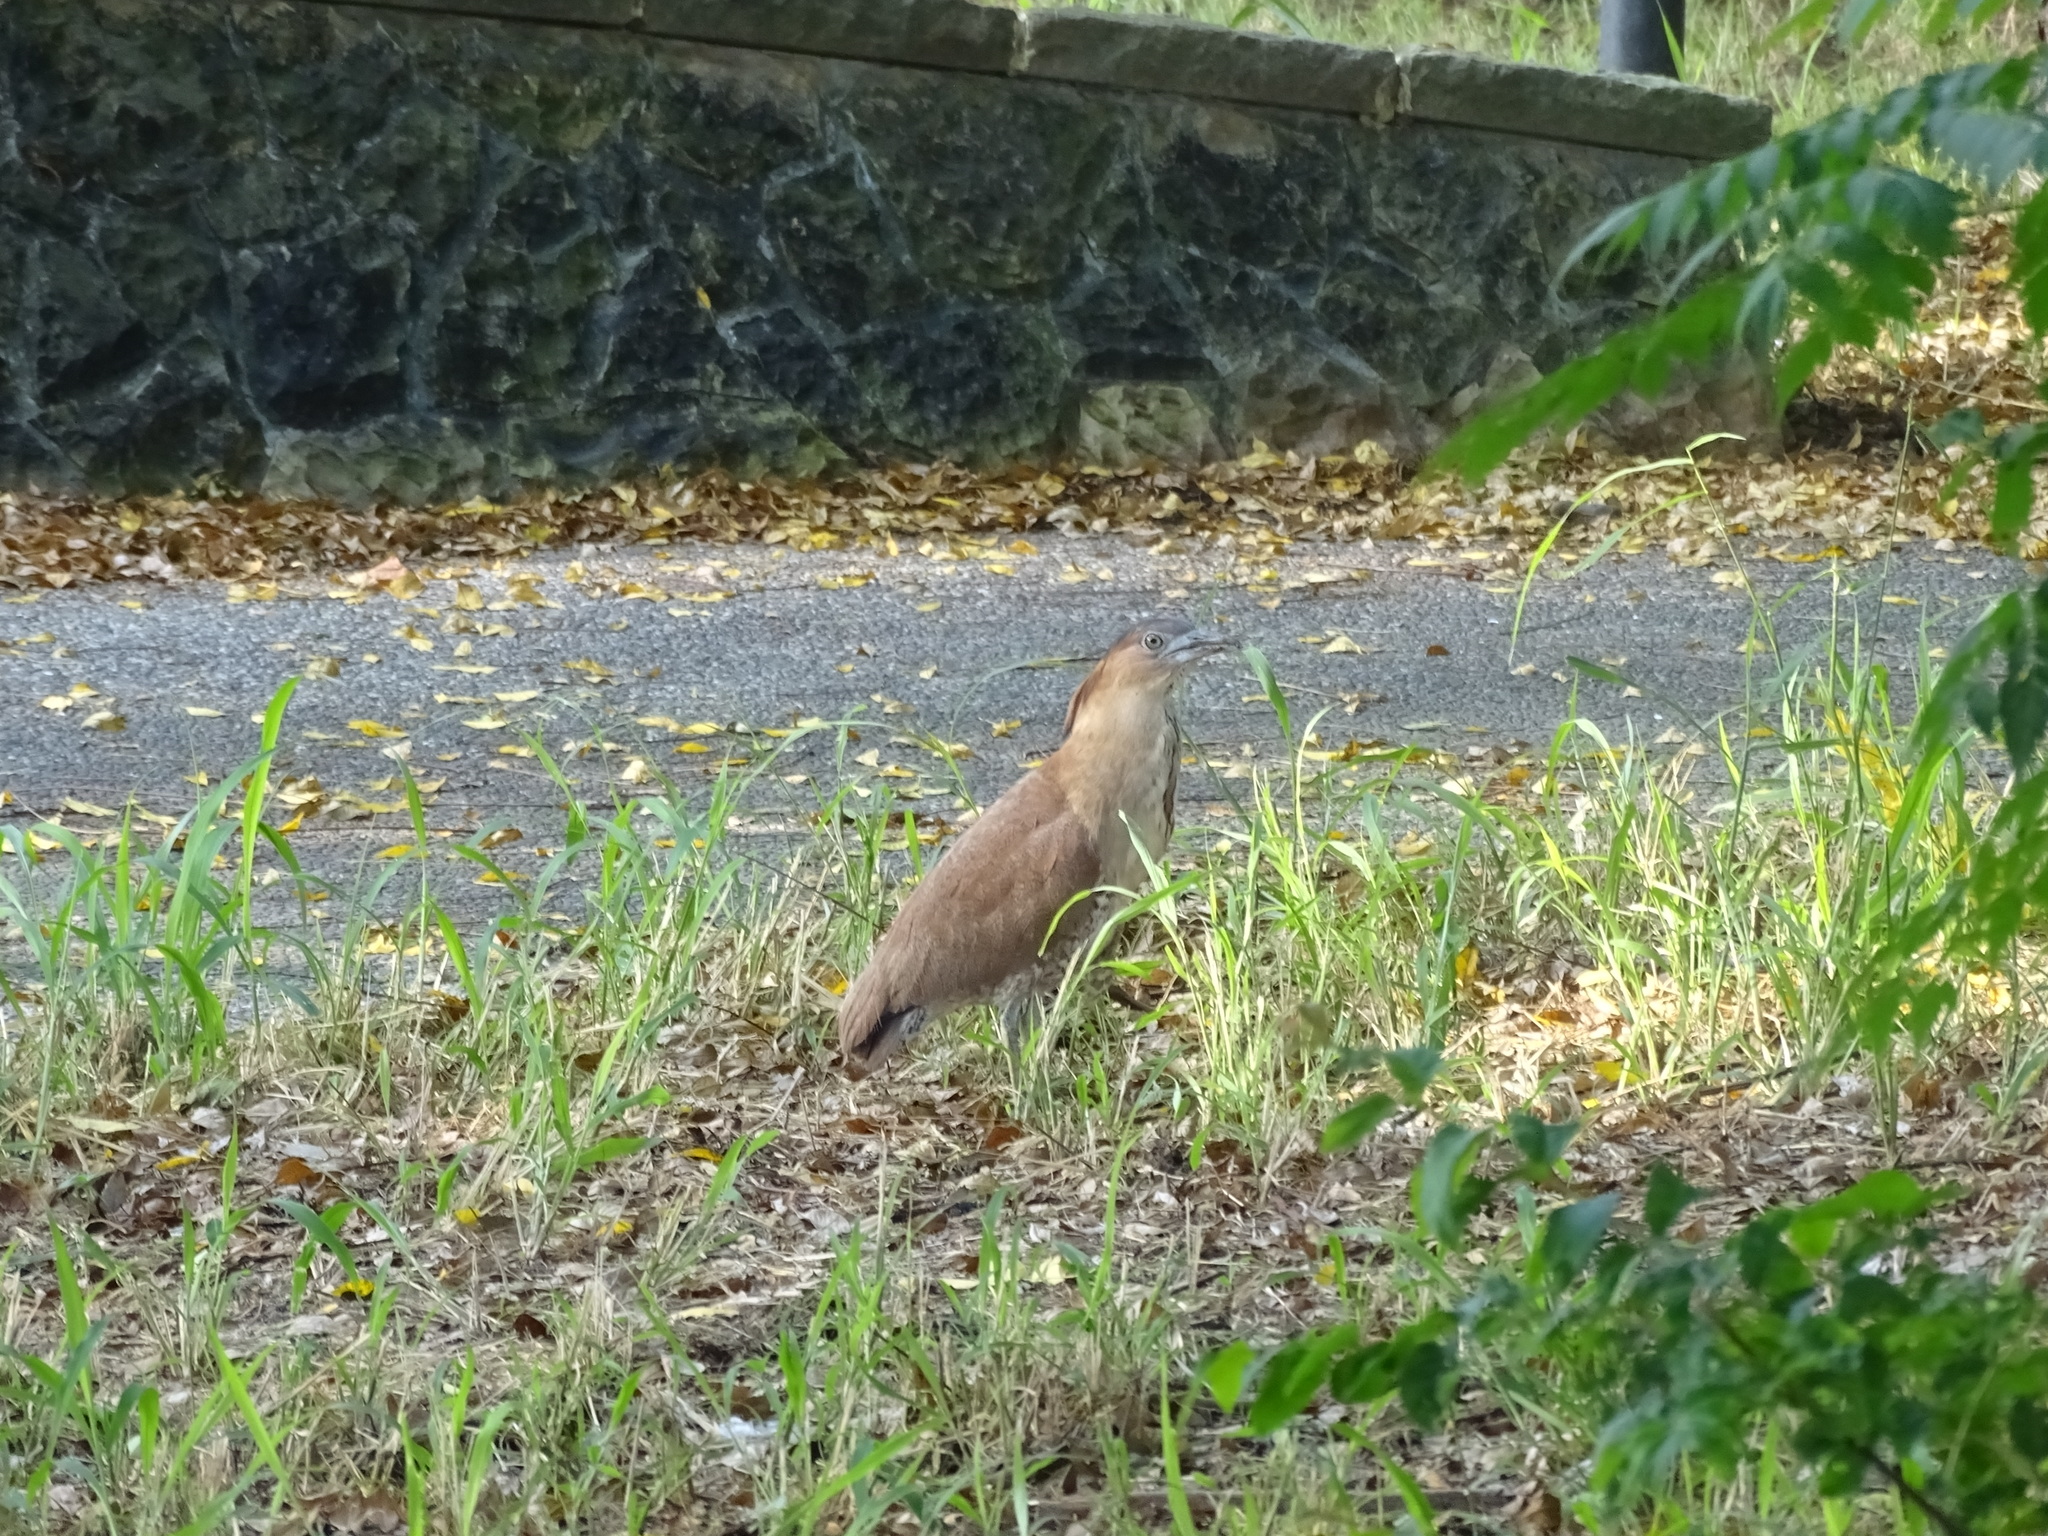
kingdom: Animalia
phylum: Chordata
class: Aves
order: Pelecaniformes
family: Ardeidae
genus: Gorsachius
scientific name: Gorsachius melanolophus
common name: Malayan night heron
